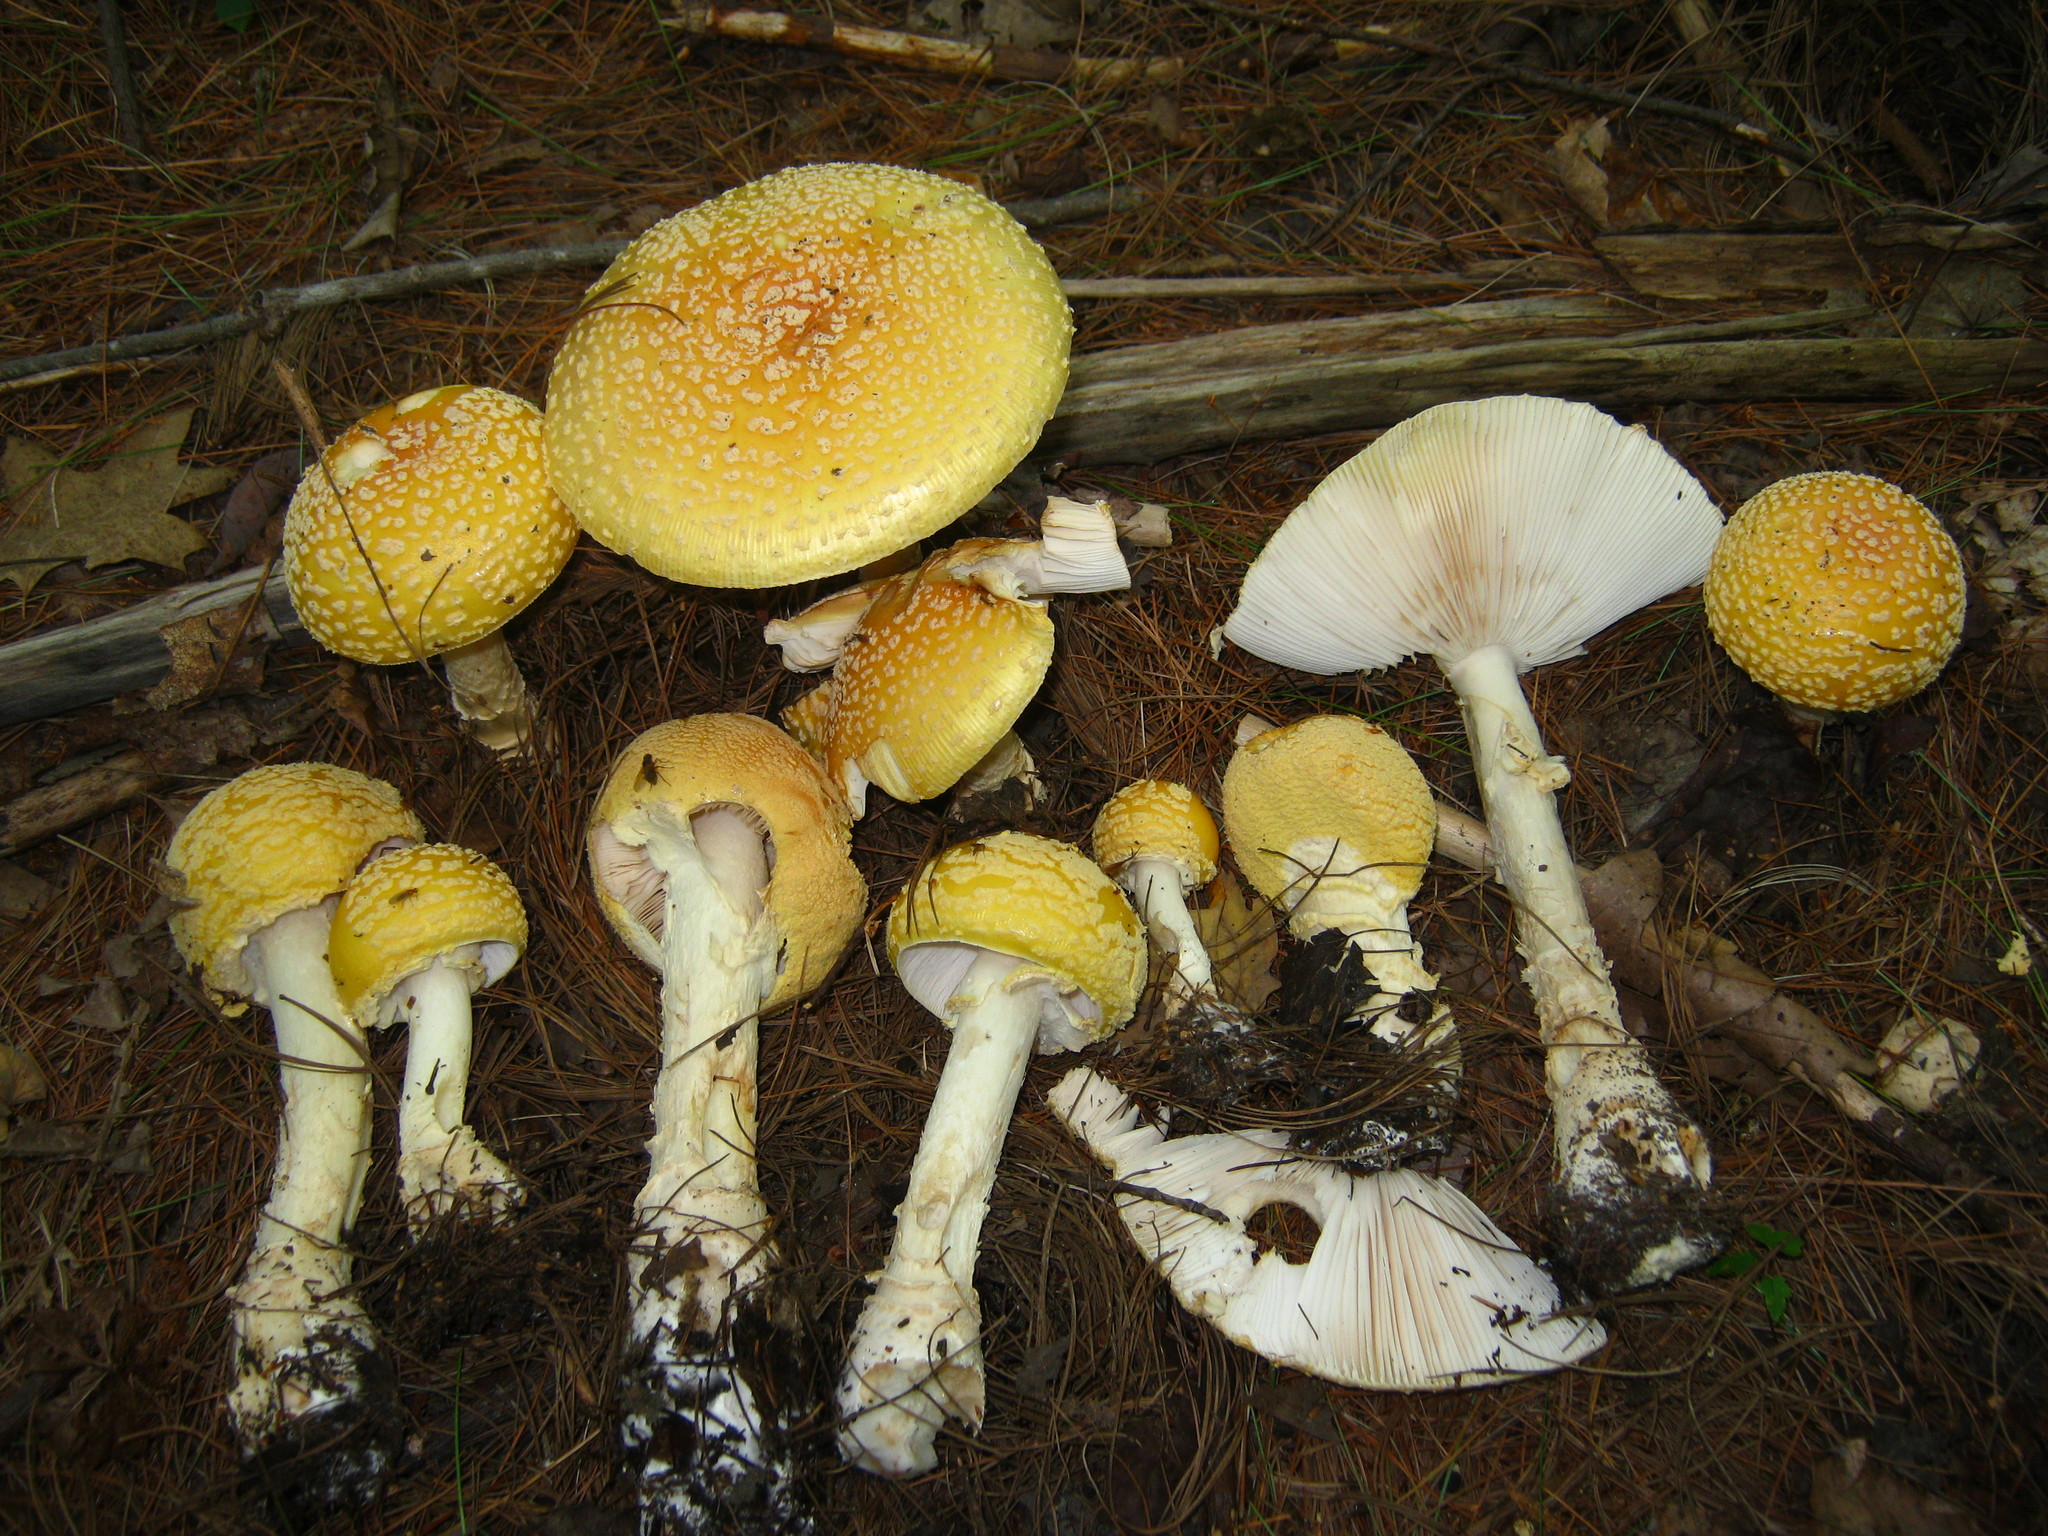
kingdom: Fungi
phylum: Basidiomycota
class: Agaricomycetes
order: Agaricales
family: Amanitaceae
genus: Amanita
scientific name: Amanita muscaria
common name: Fly agaric
